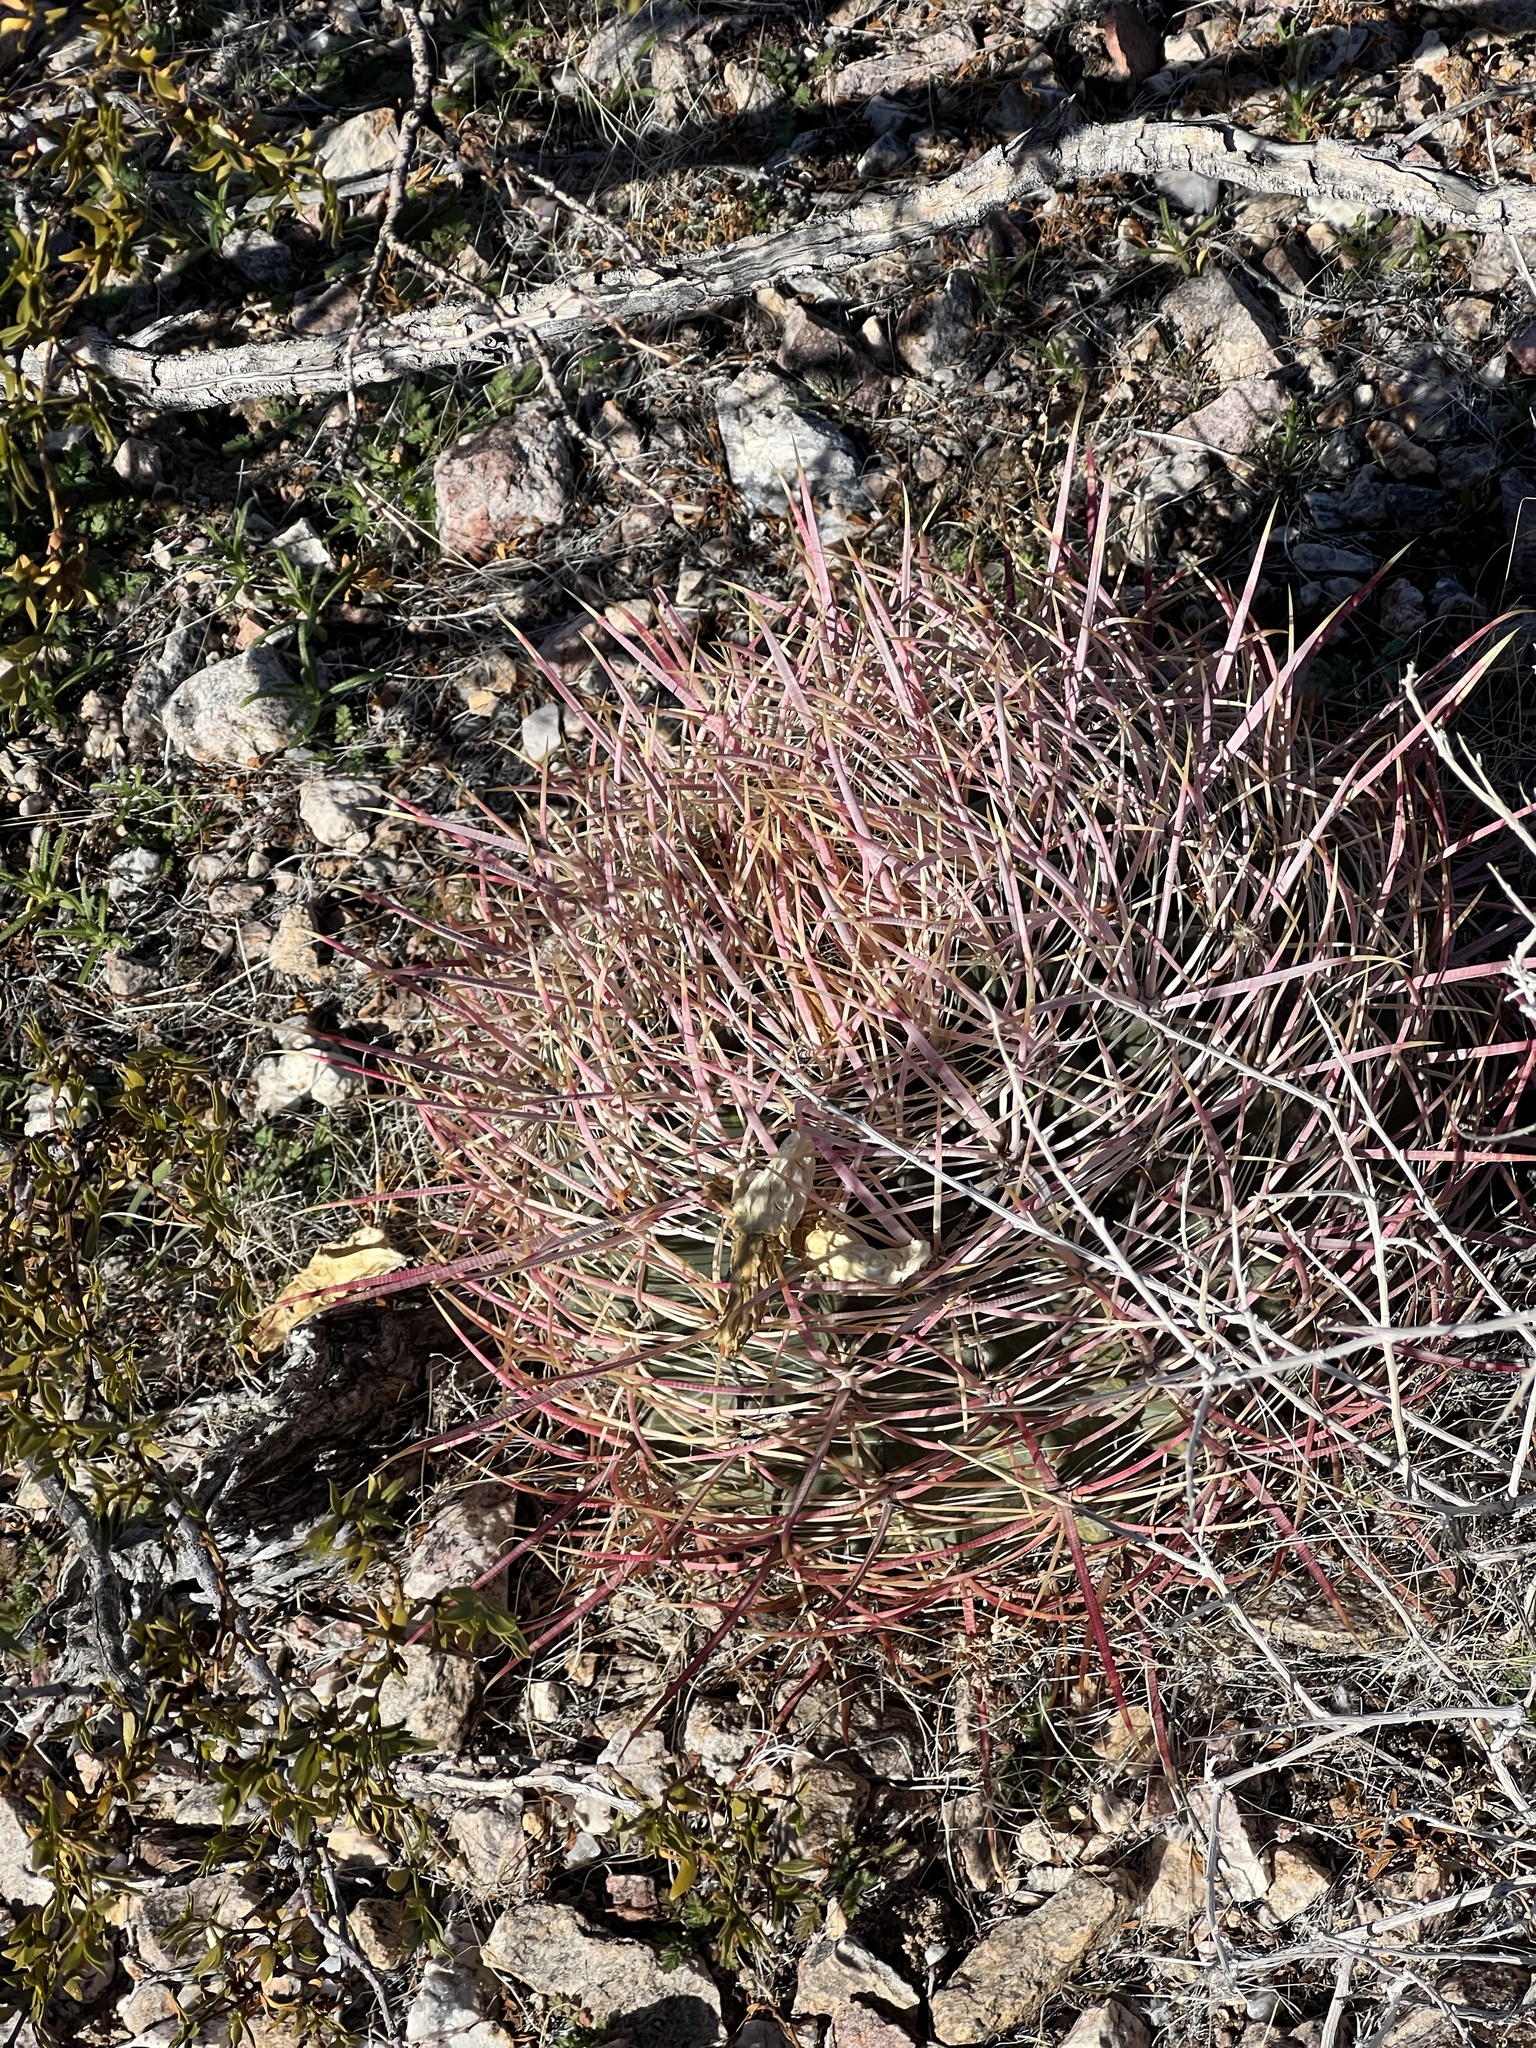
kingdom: Plantae
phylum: Tracheophyta
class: Magnoliopsida
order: Caryophyllales
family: Cactaceae
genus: Ferocactus
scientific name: Ferocactus cylindraceus
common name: California barrel cactus
